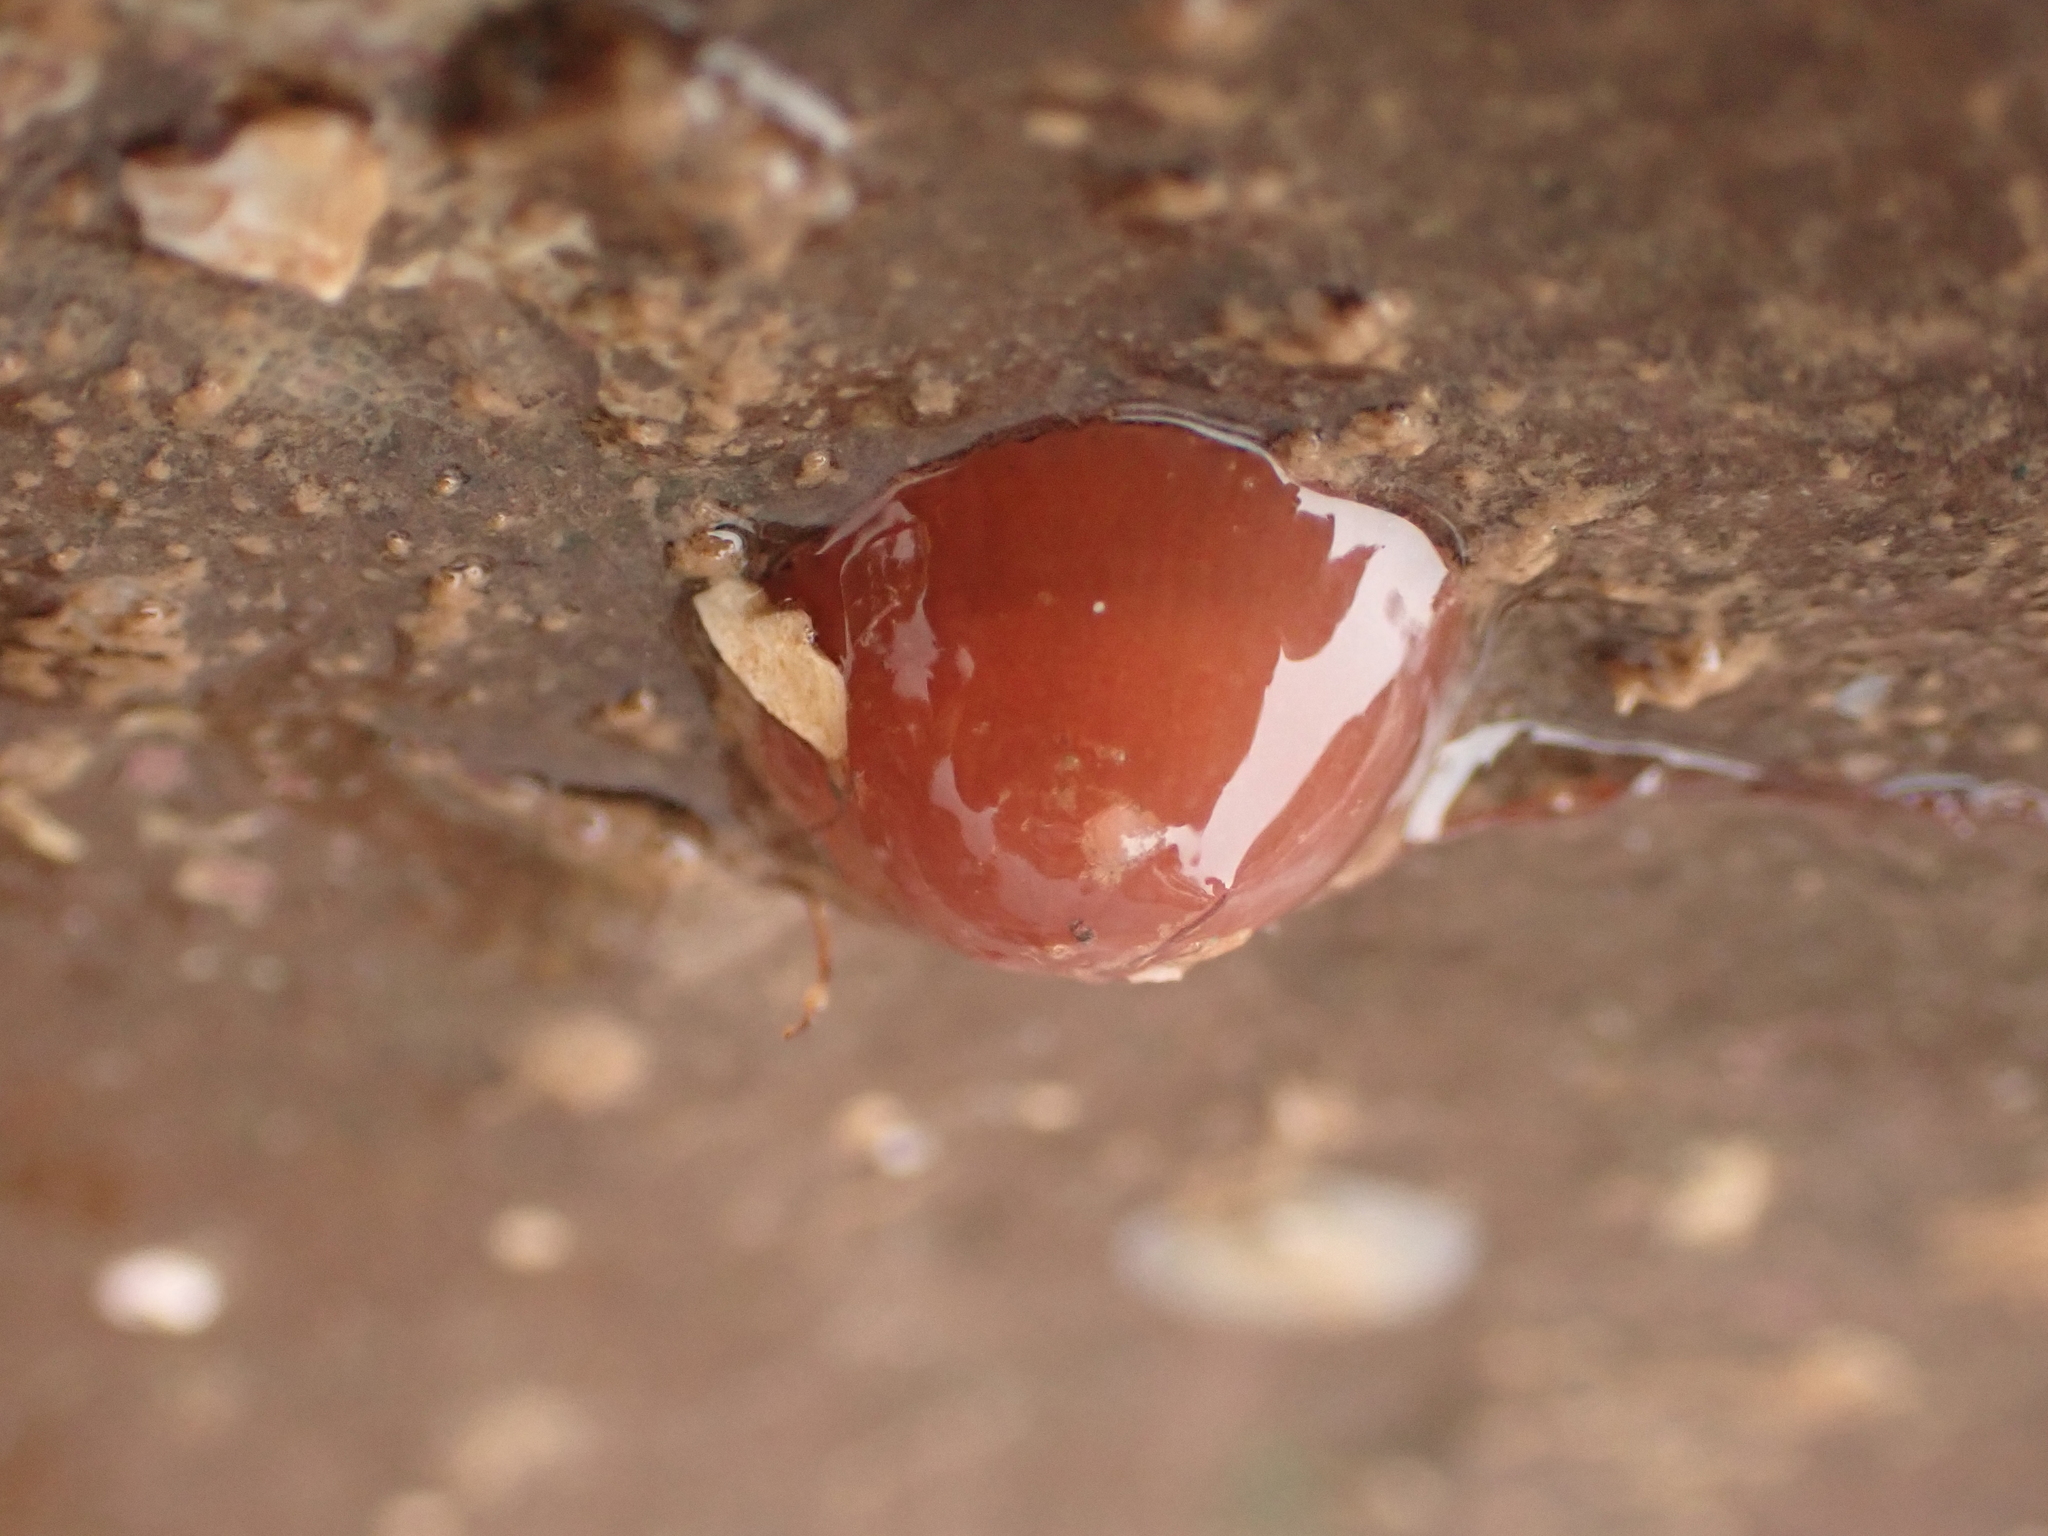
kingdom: Animalia
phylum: Cnidaria
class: Anthozoa
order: Actiniaria
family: Metridiidae
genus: Metridium
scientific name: Metridium senile
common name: Clonal plumose anemone
